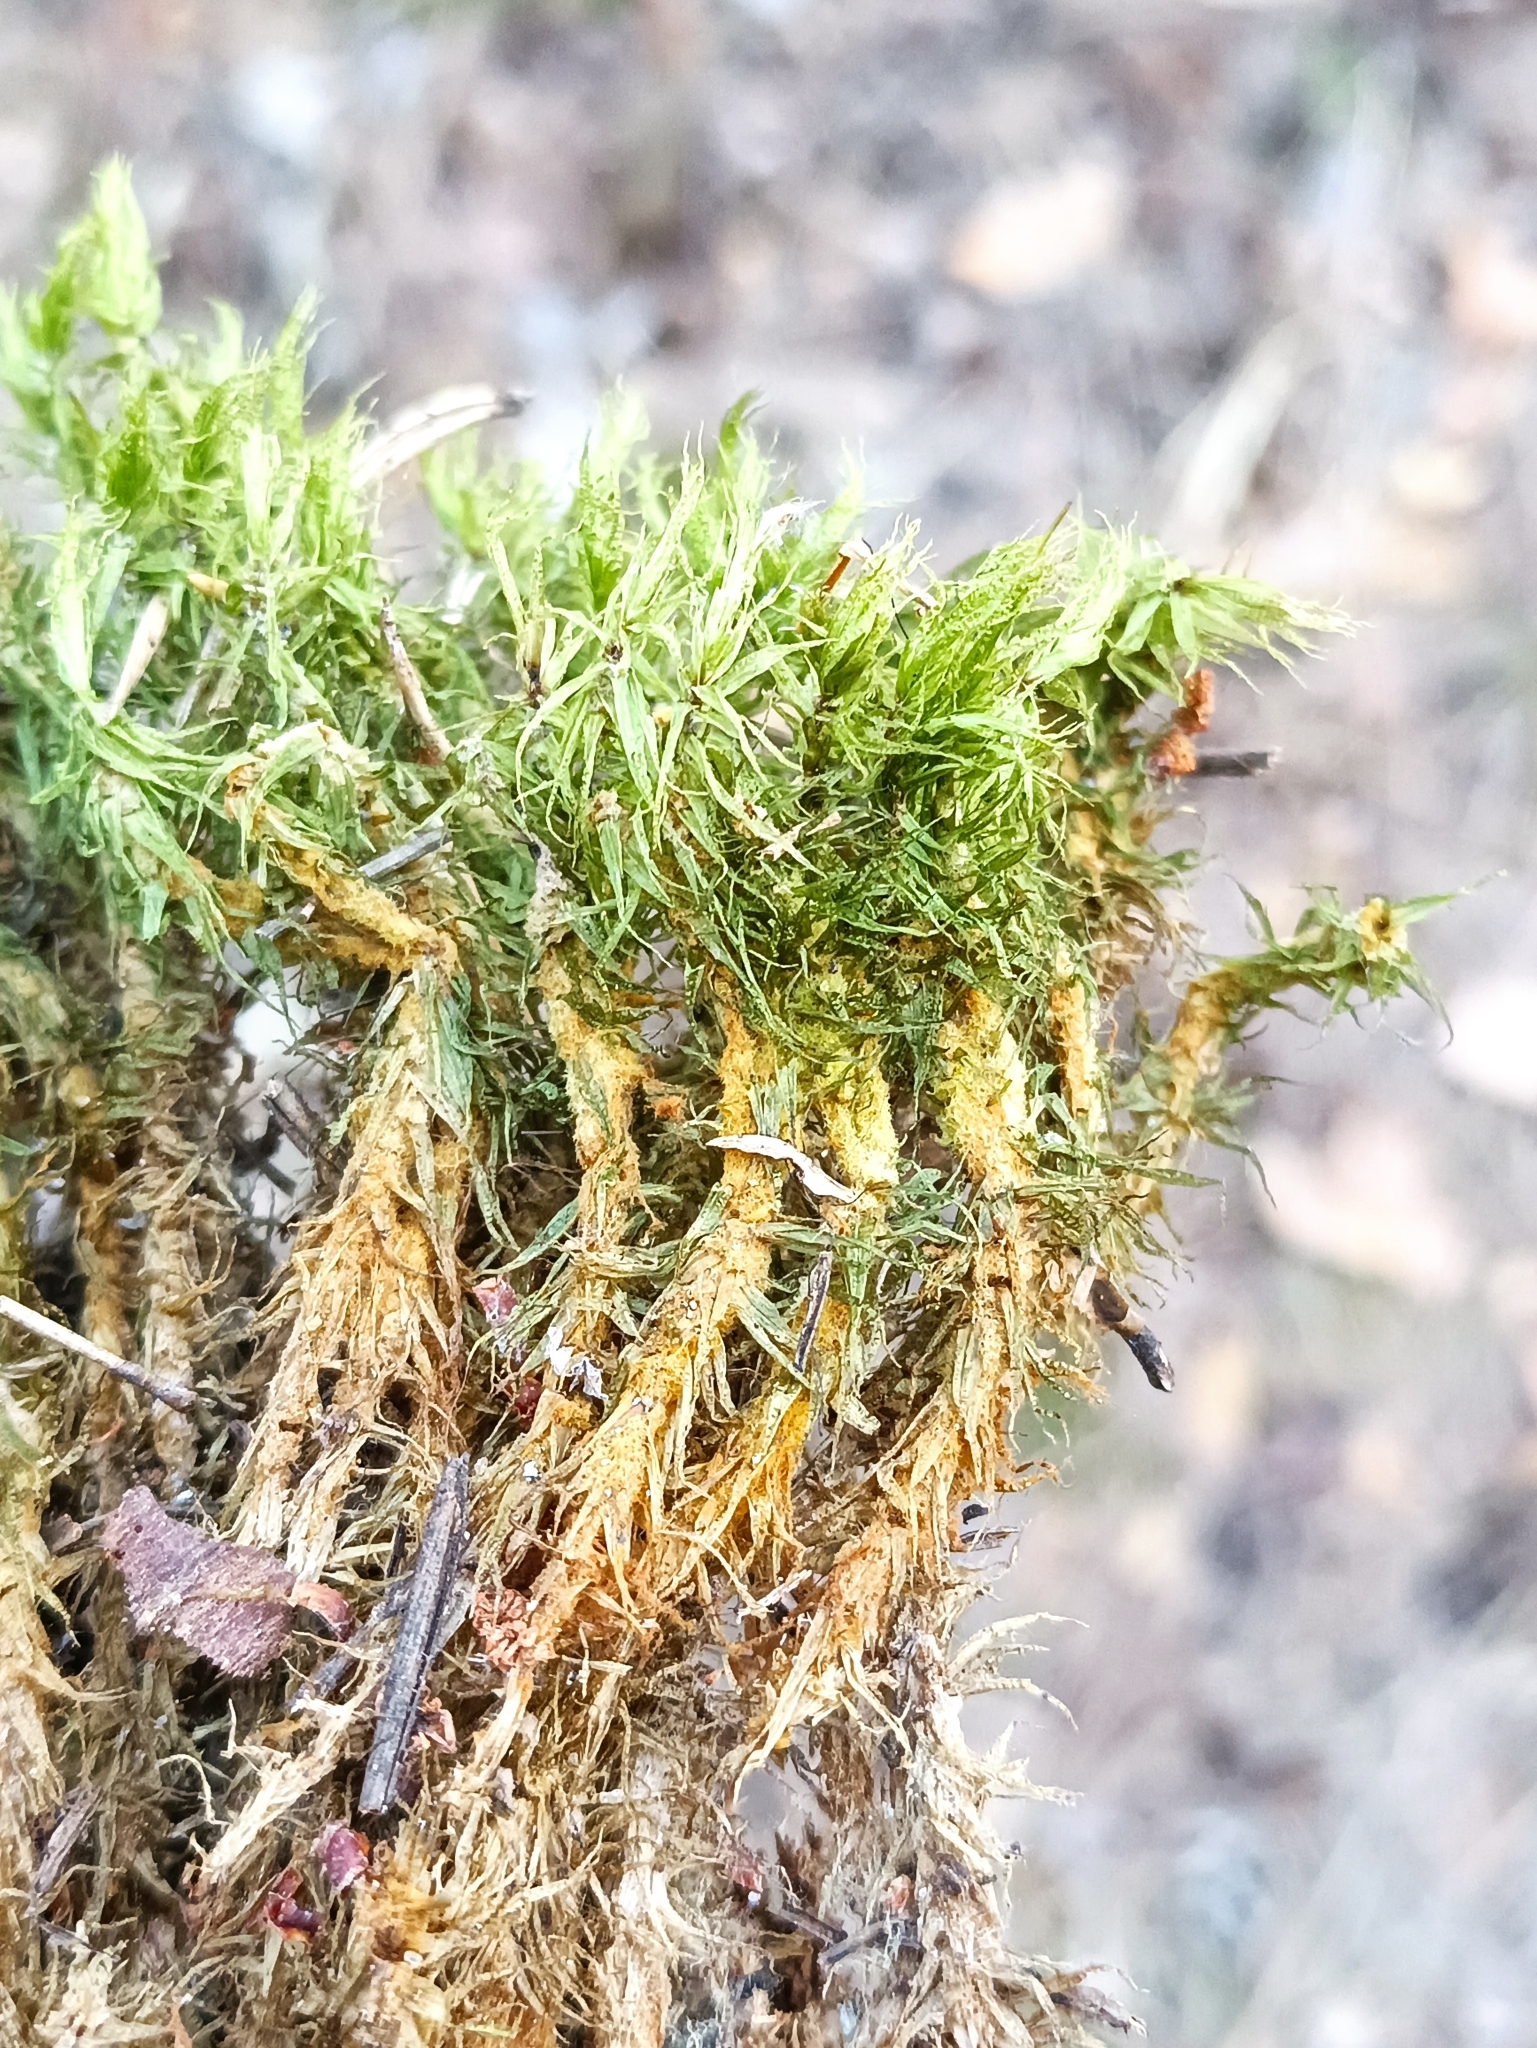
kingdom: Plantae
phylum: Bryophyta
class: Bryopsida
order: Dicranales
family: Dicranaceae
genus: Dicranum
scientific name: Dicranum polysetum
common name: Rugose fork-moss
